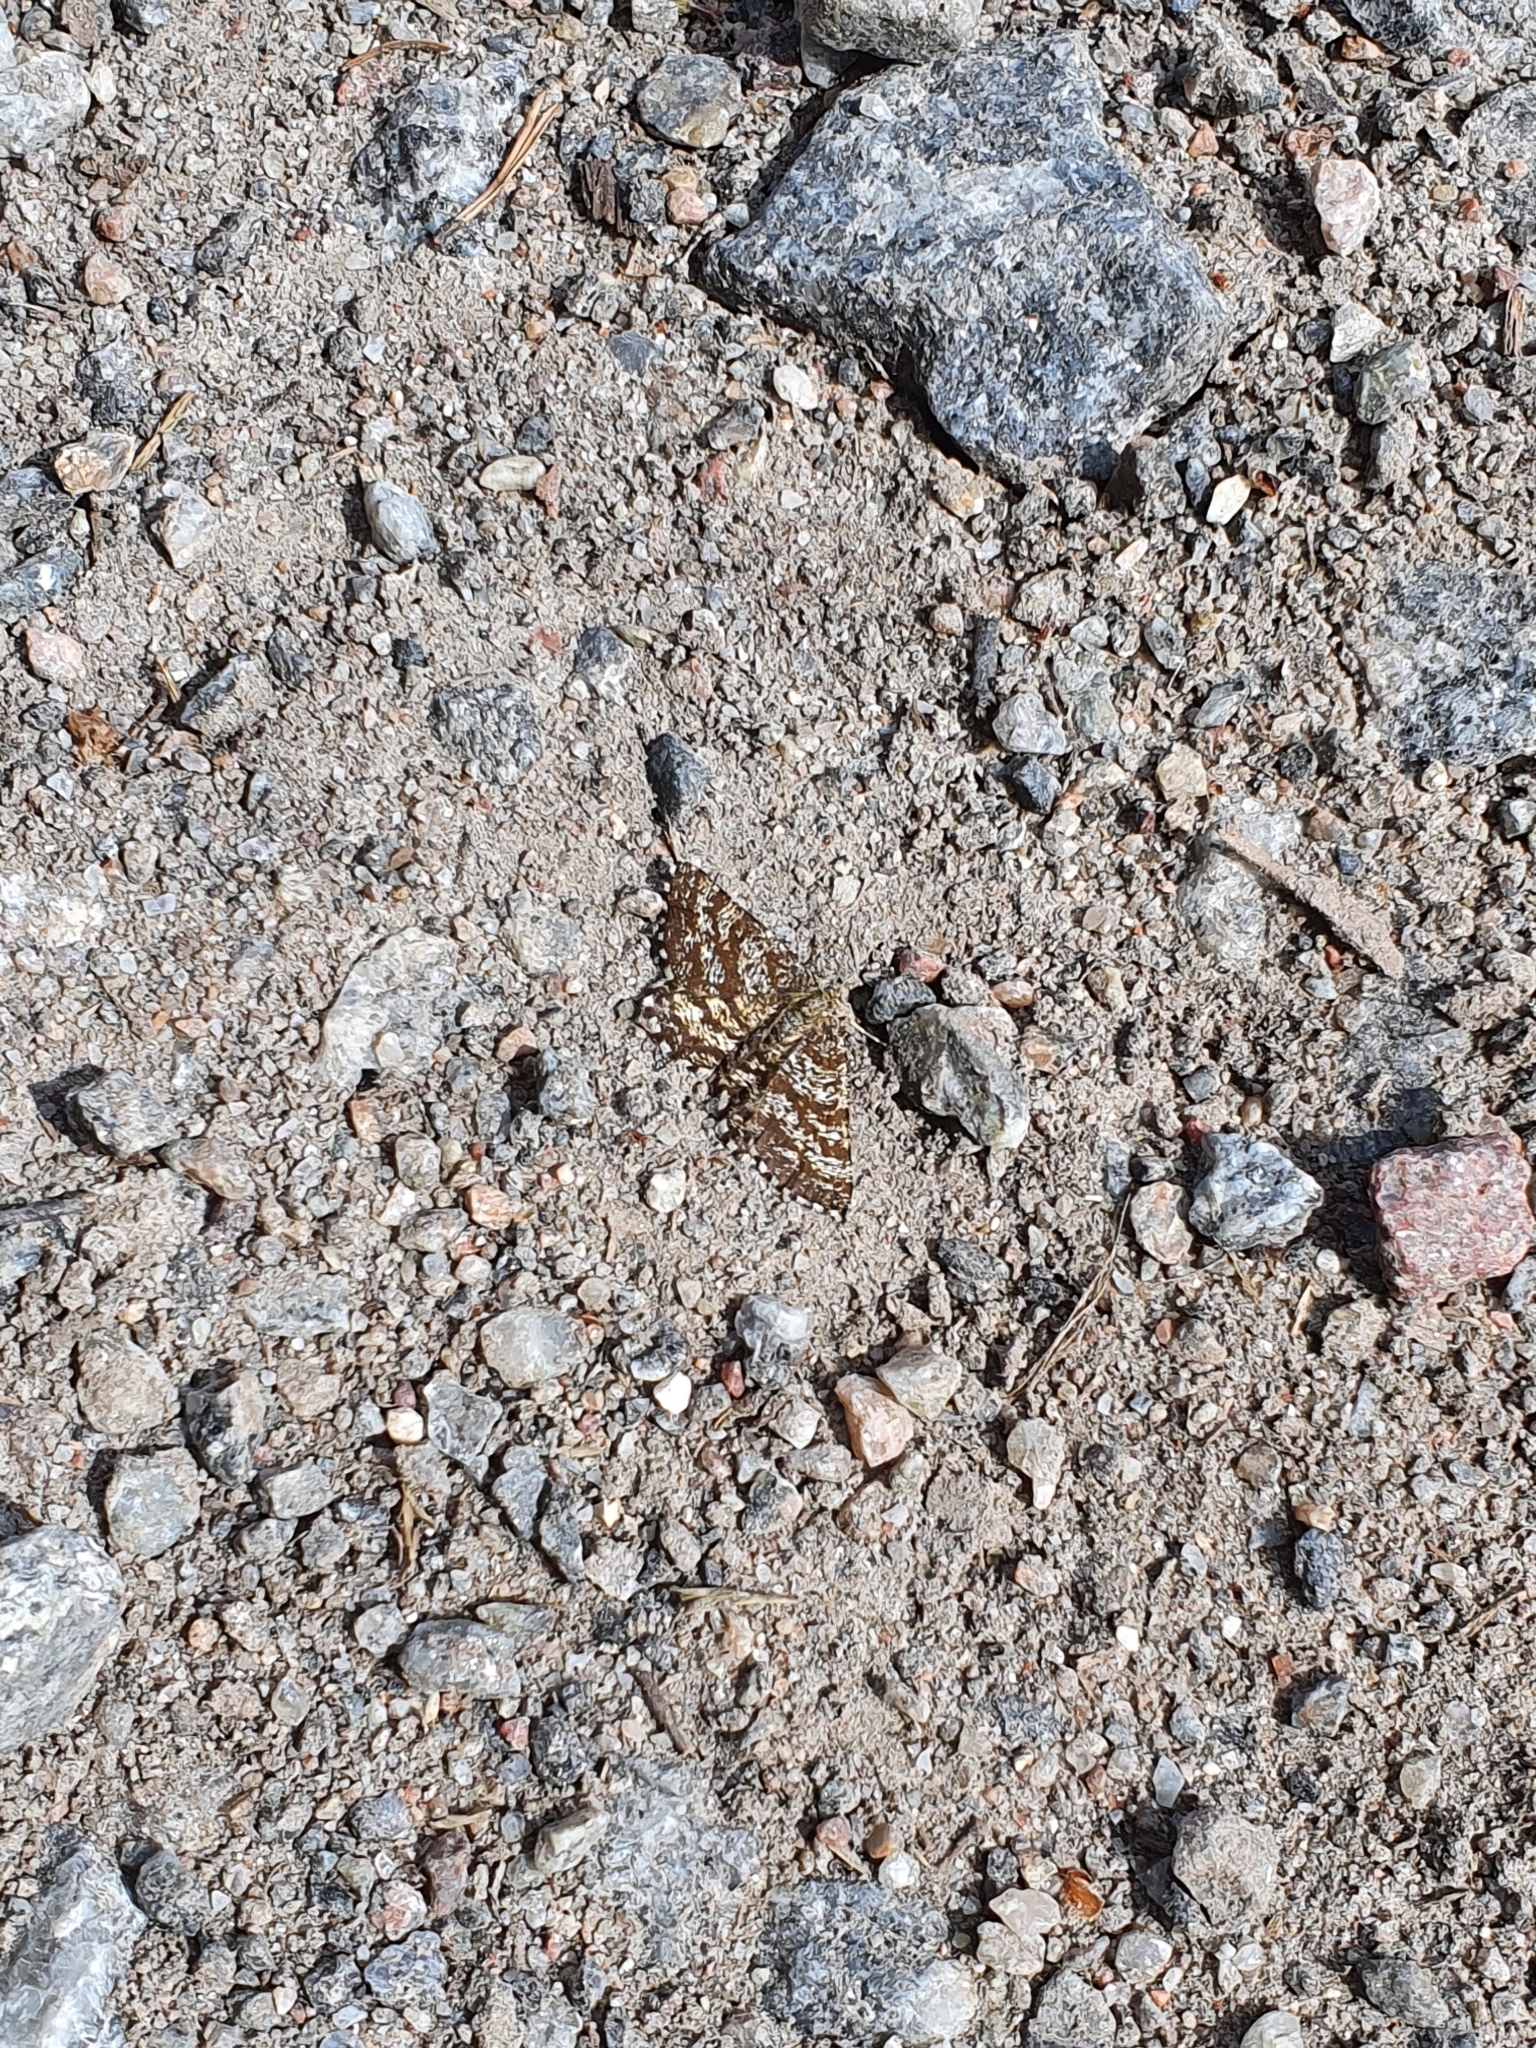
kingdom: Animalia
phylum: Arthropoda
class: Insecta
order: Lepidoptera
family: Geometridae
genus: Ematurga
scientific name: Ematurga atomaria
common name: Common heath
